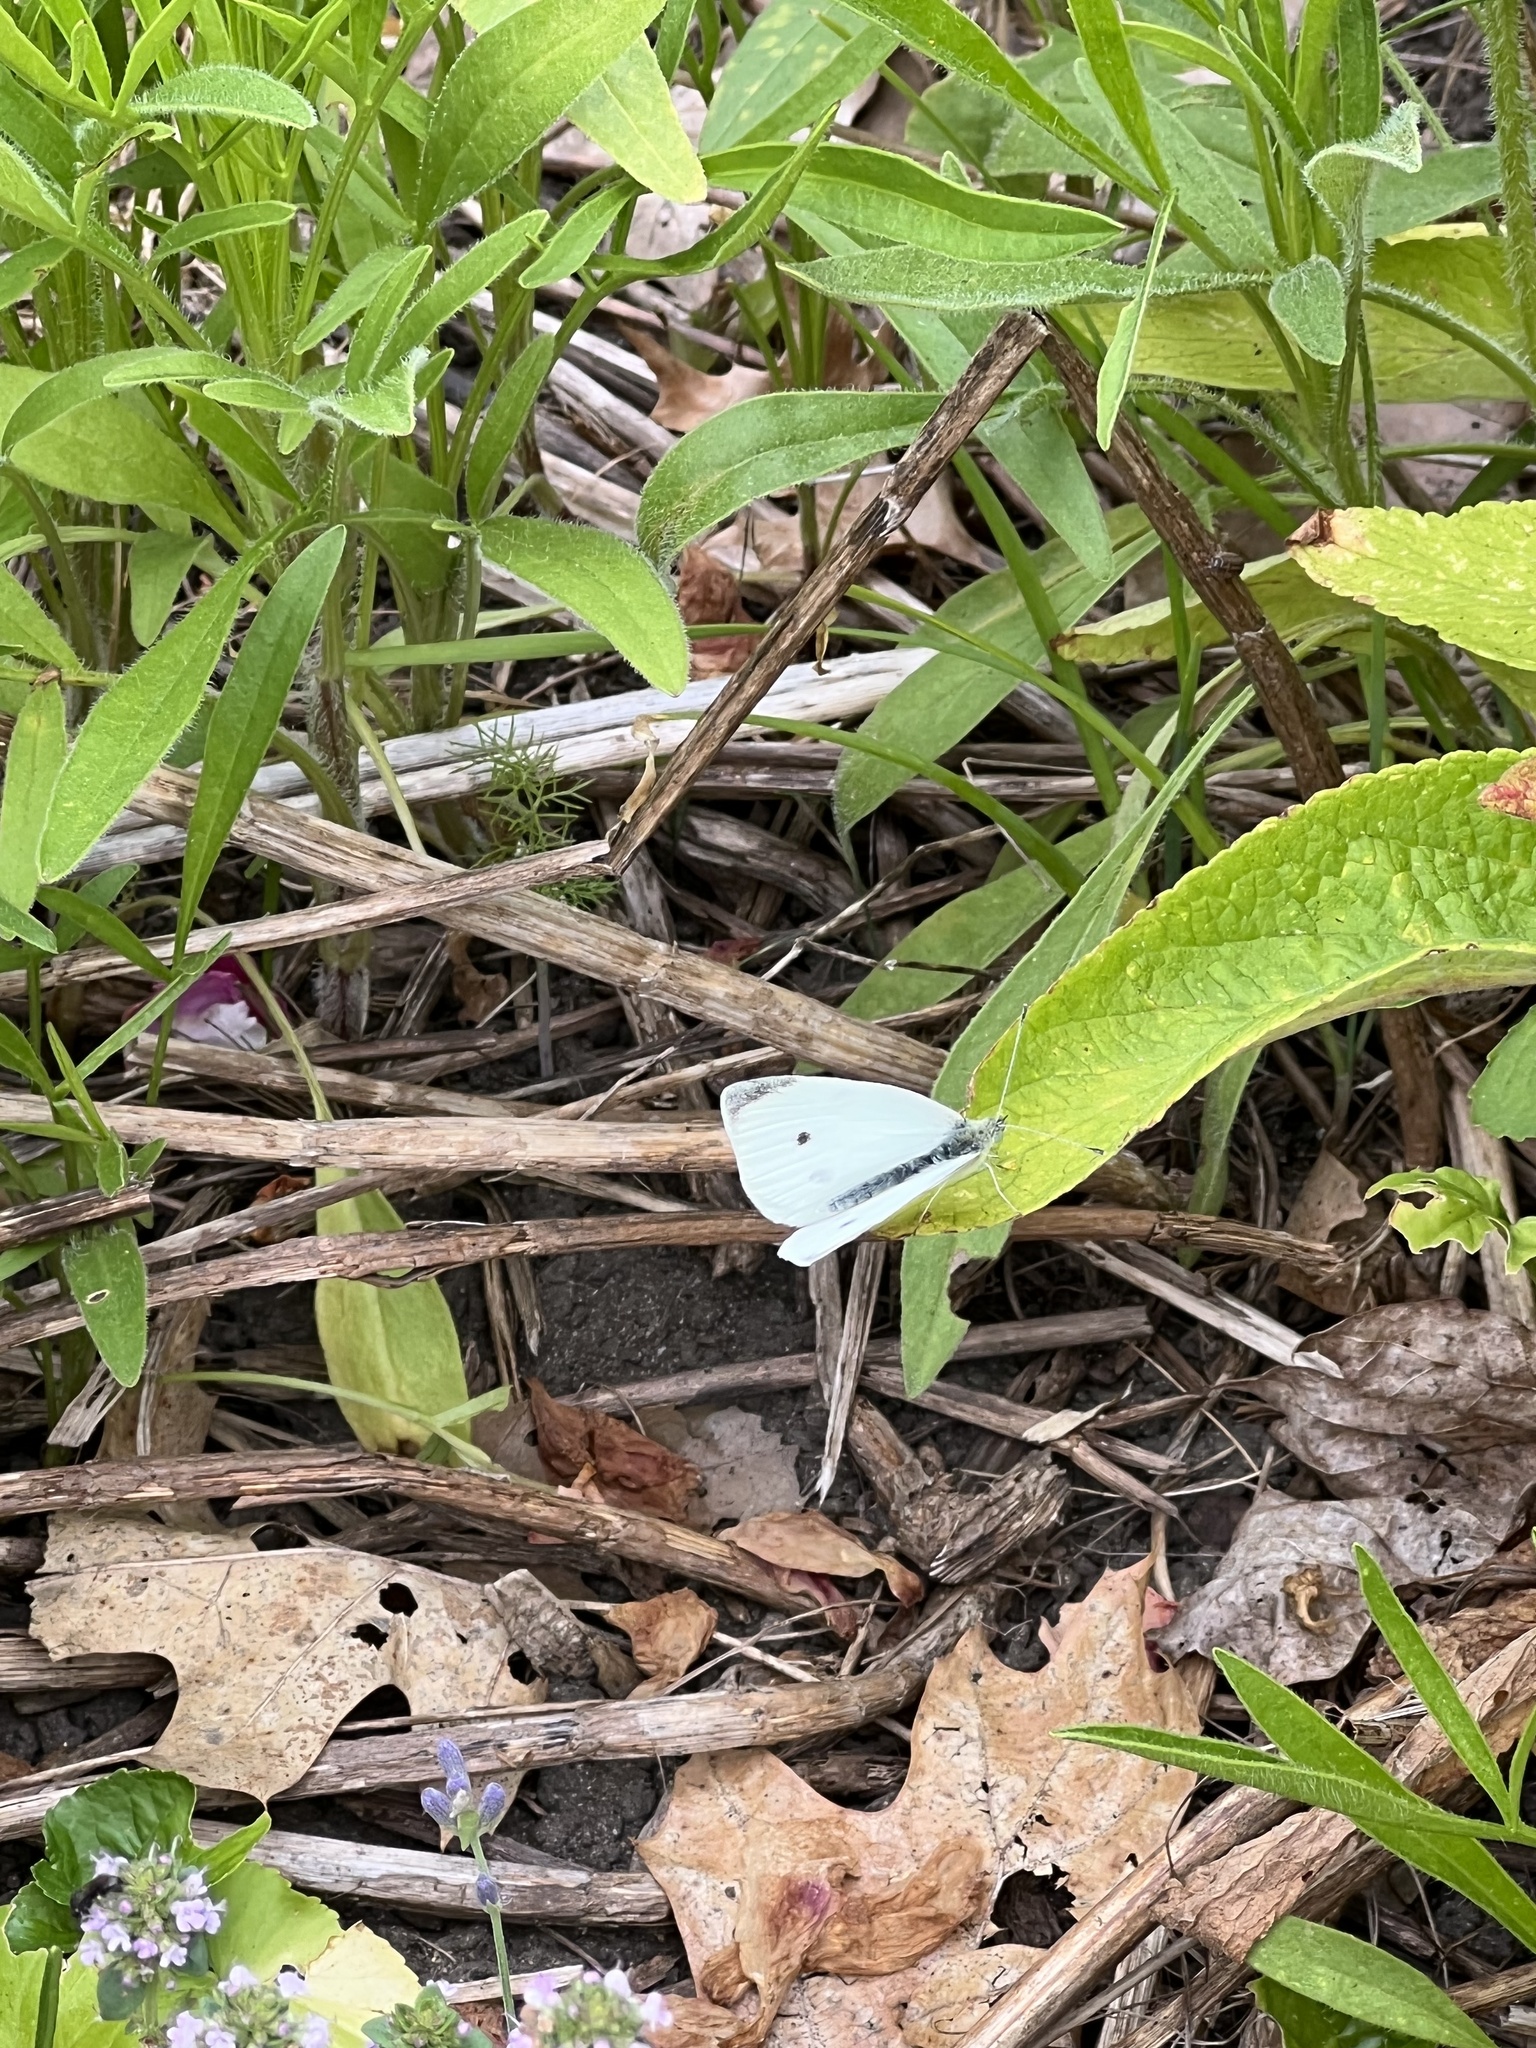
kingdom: Animalia
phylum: Arthropoda
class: Insecta
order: Lepidoptera
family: Pieridae
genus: Pieris
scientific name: Pieris rapae
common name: Small white
